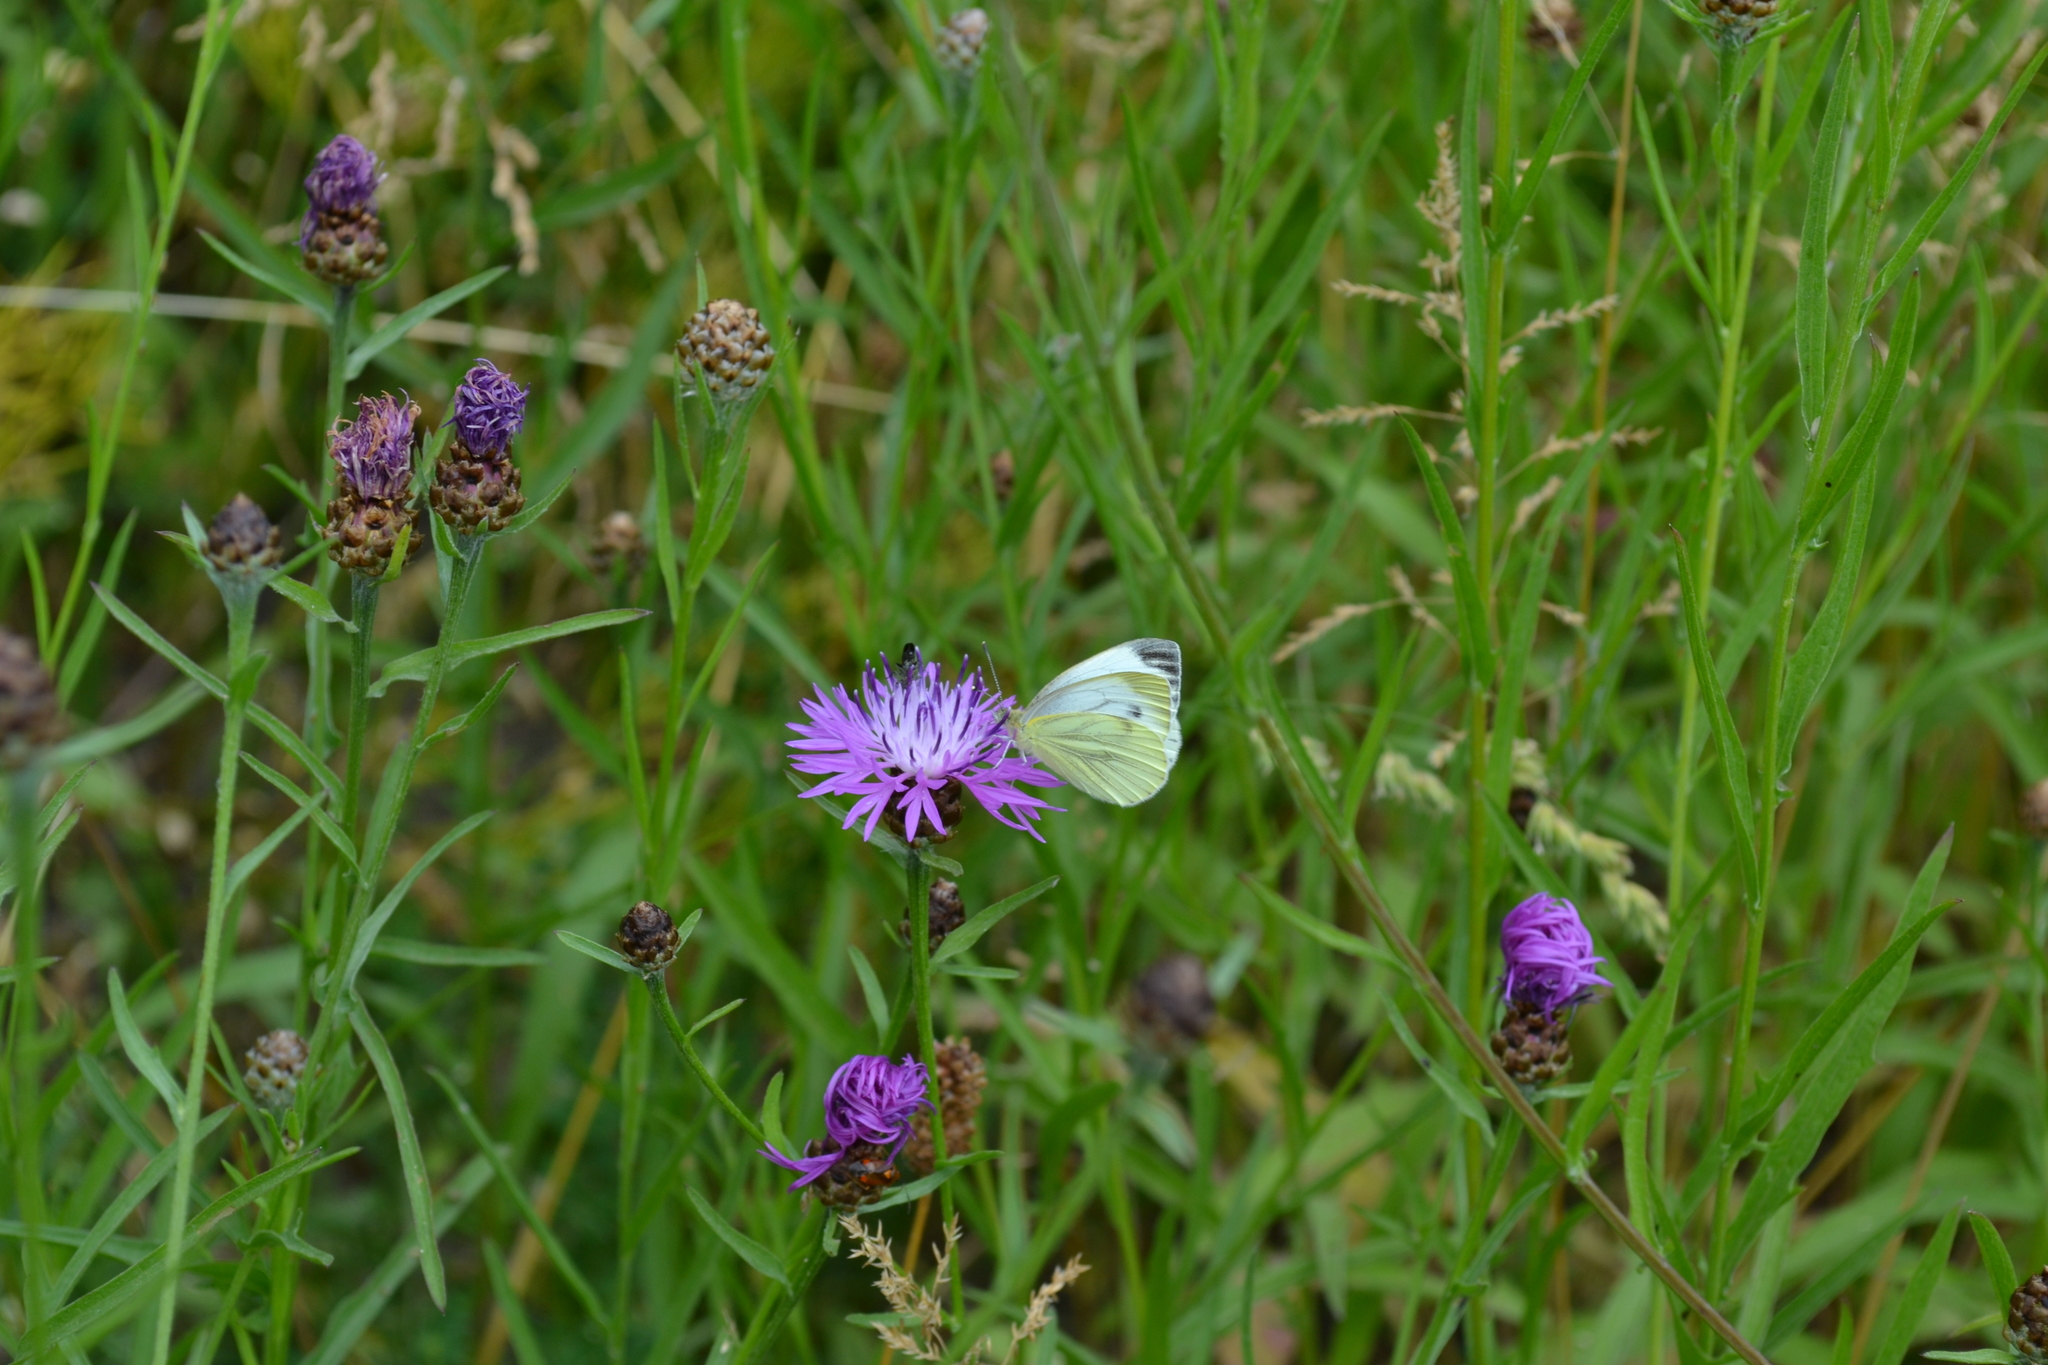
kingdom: Animalia
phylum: Arthropoda
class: Insecta
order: Lepidoptera
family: Pieridae
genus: Pieris
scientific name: Pieris napi
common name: Green-veined white
